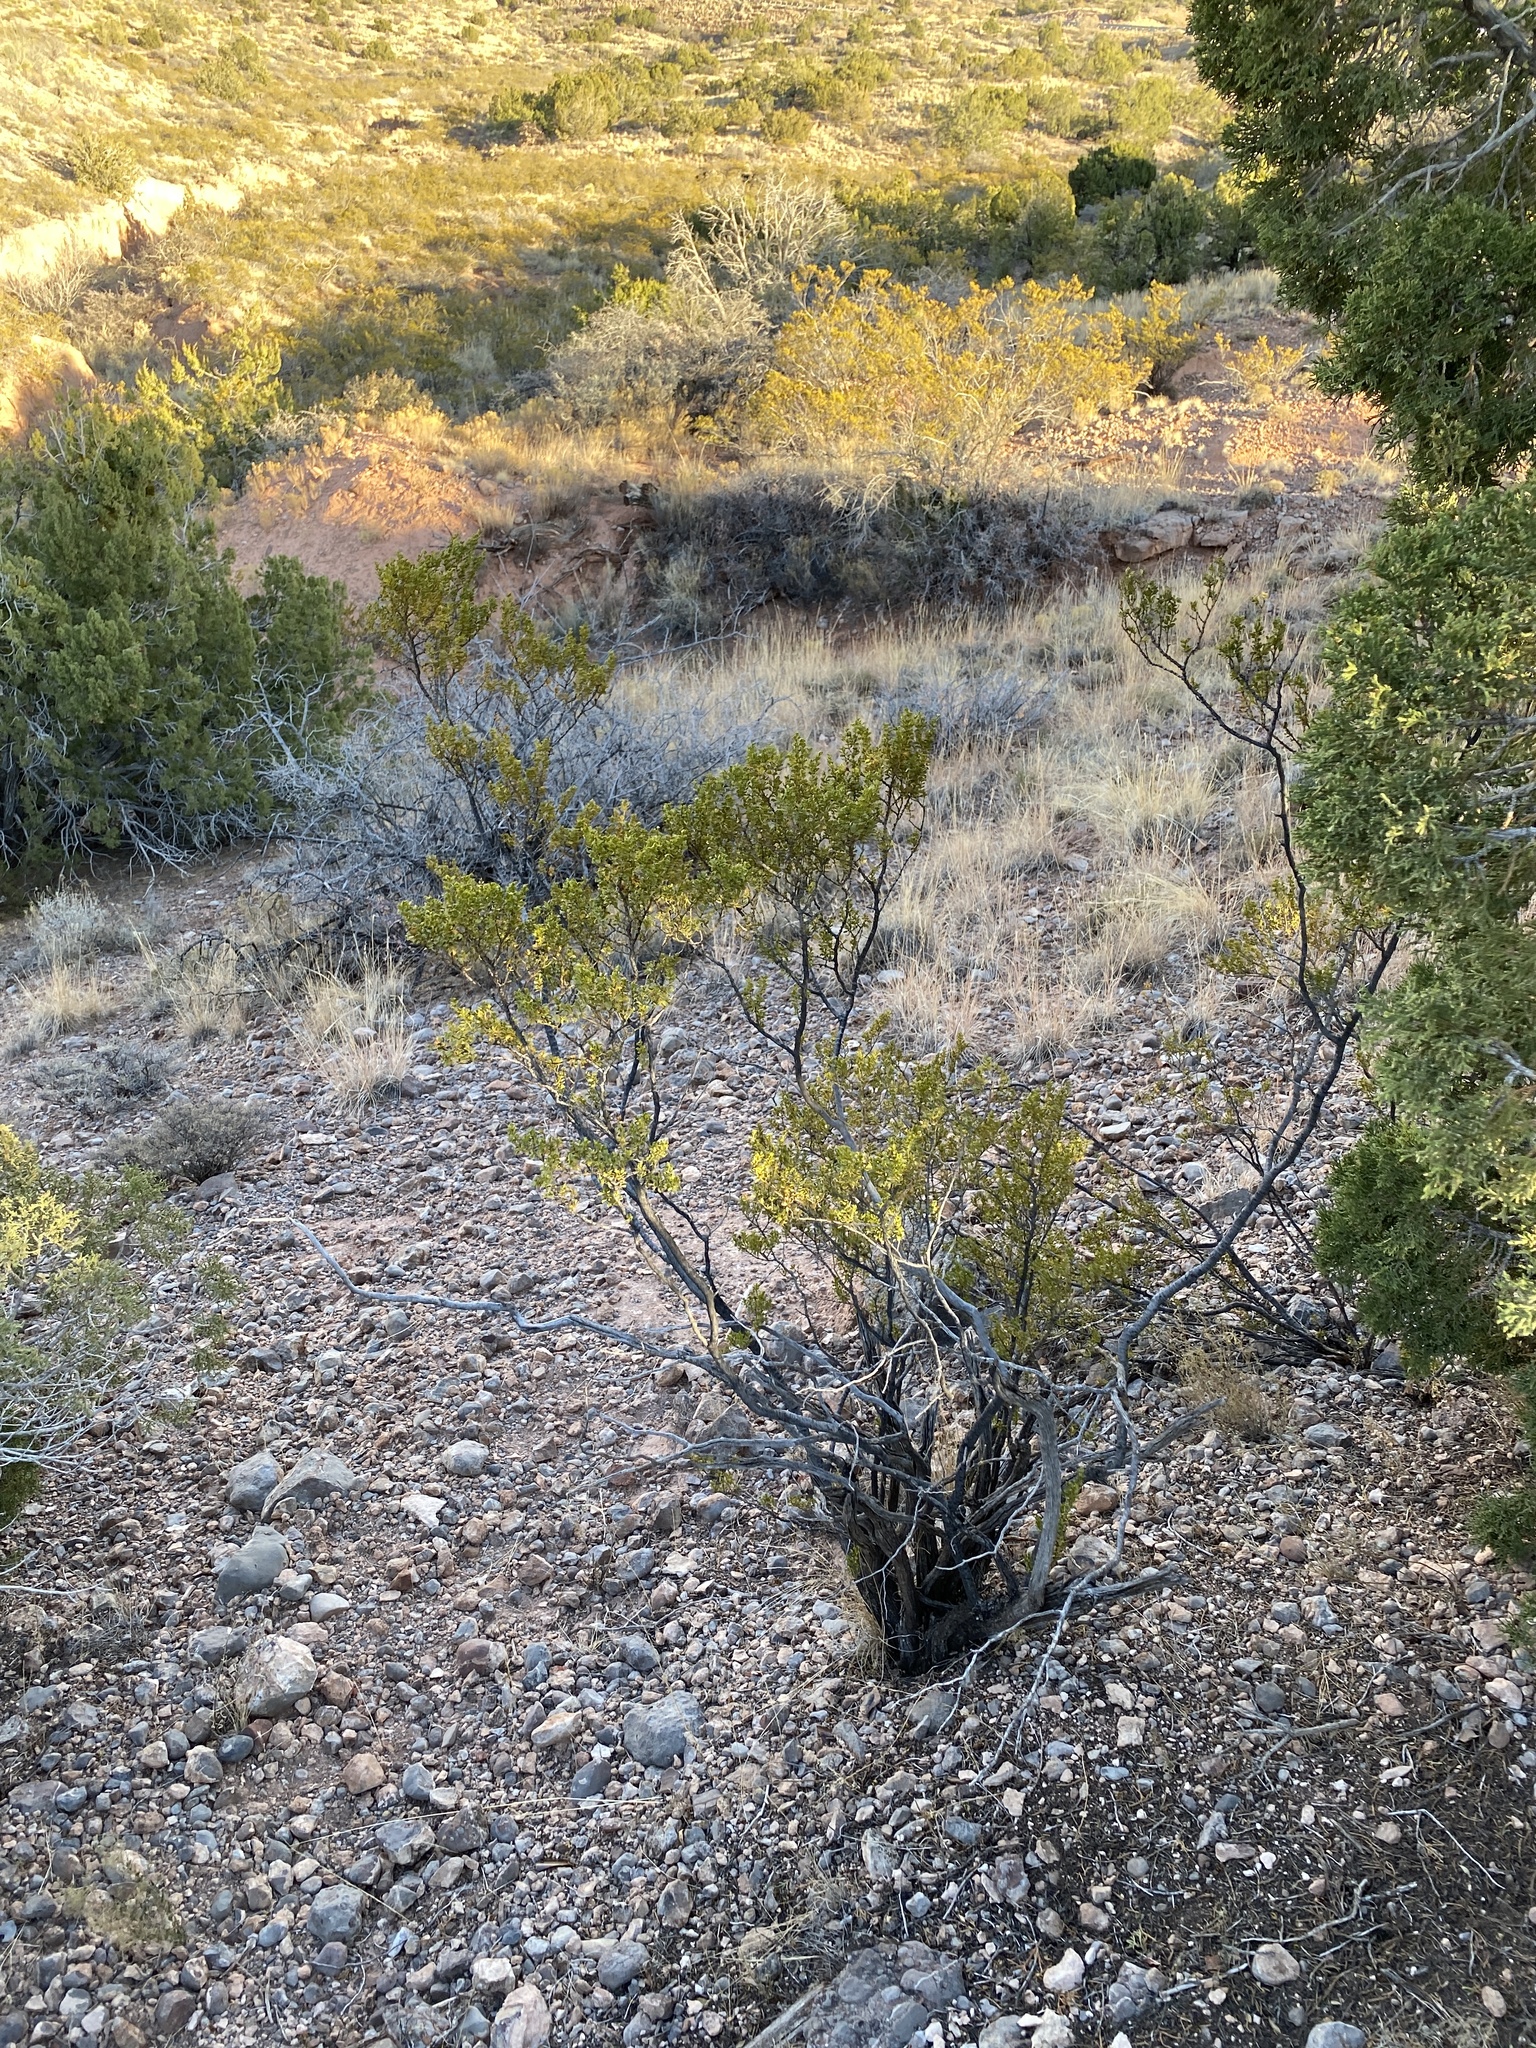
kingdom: Plantae
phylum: Tracheophyta
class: Magnoliopsida
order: Zygophyllales
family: Zygophyllaceae
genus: Larrea
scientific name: Larrea tridentata
